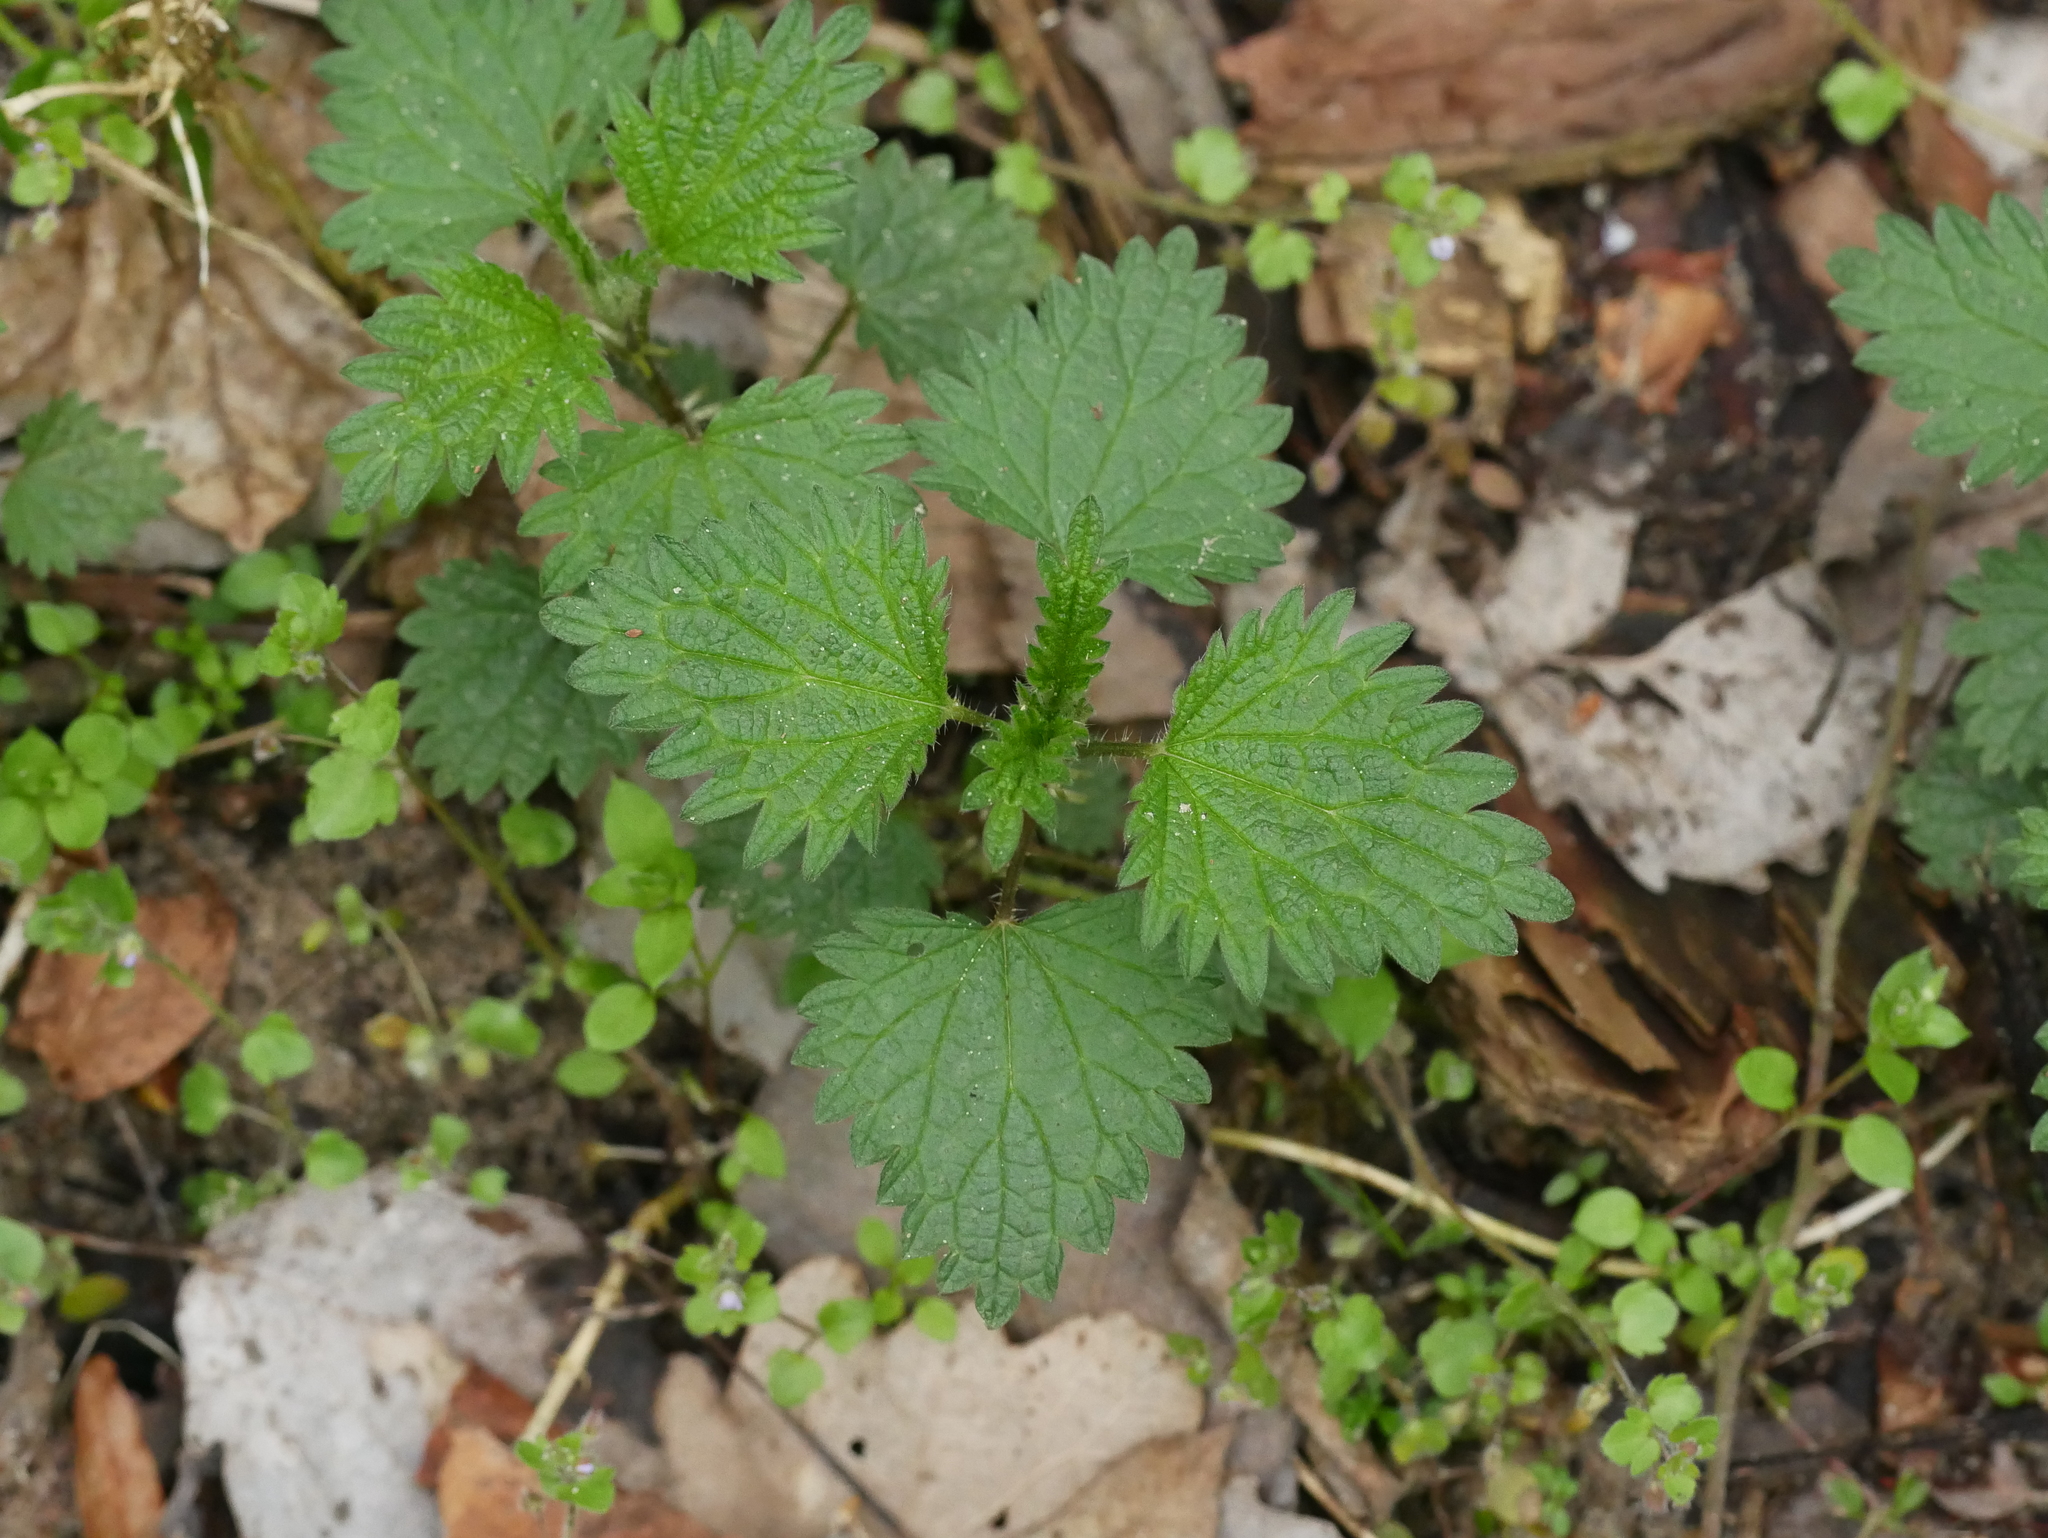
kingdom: Plantae
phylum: Tracheophyta
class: Magnoliopsida
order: Rosales
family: Urticaceae
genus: Urtica
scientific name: Urtica dioica
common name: Common nettle
